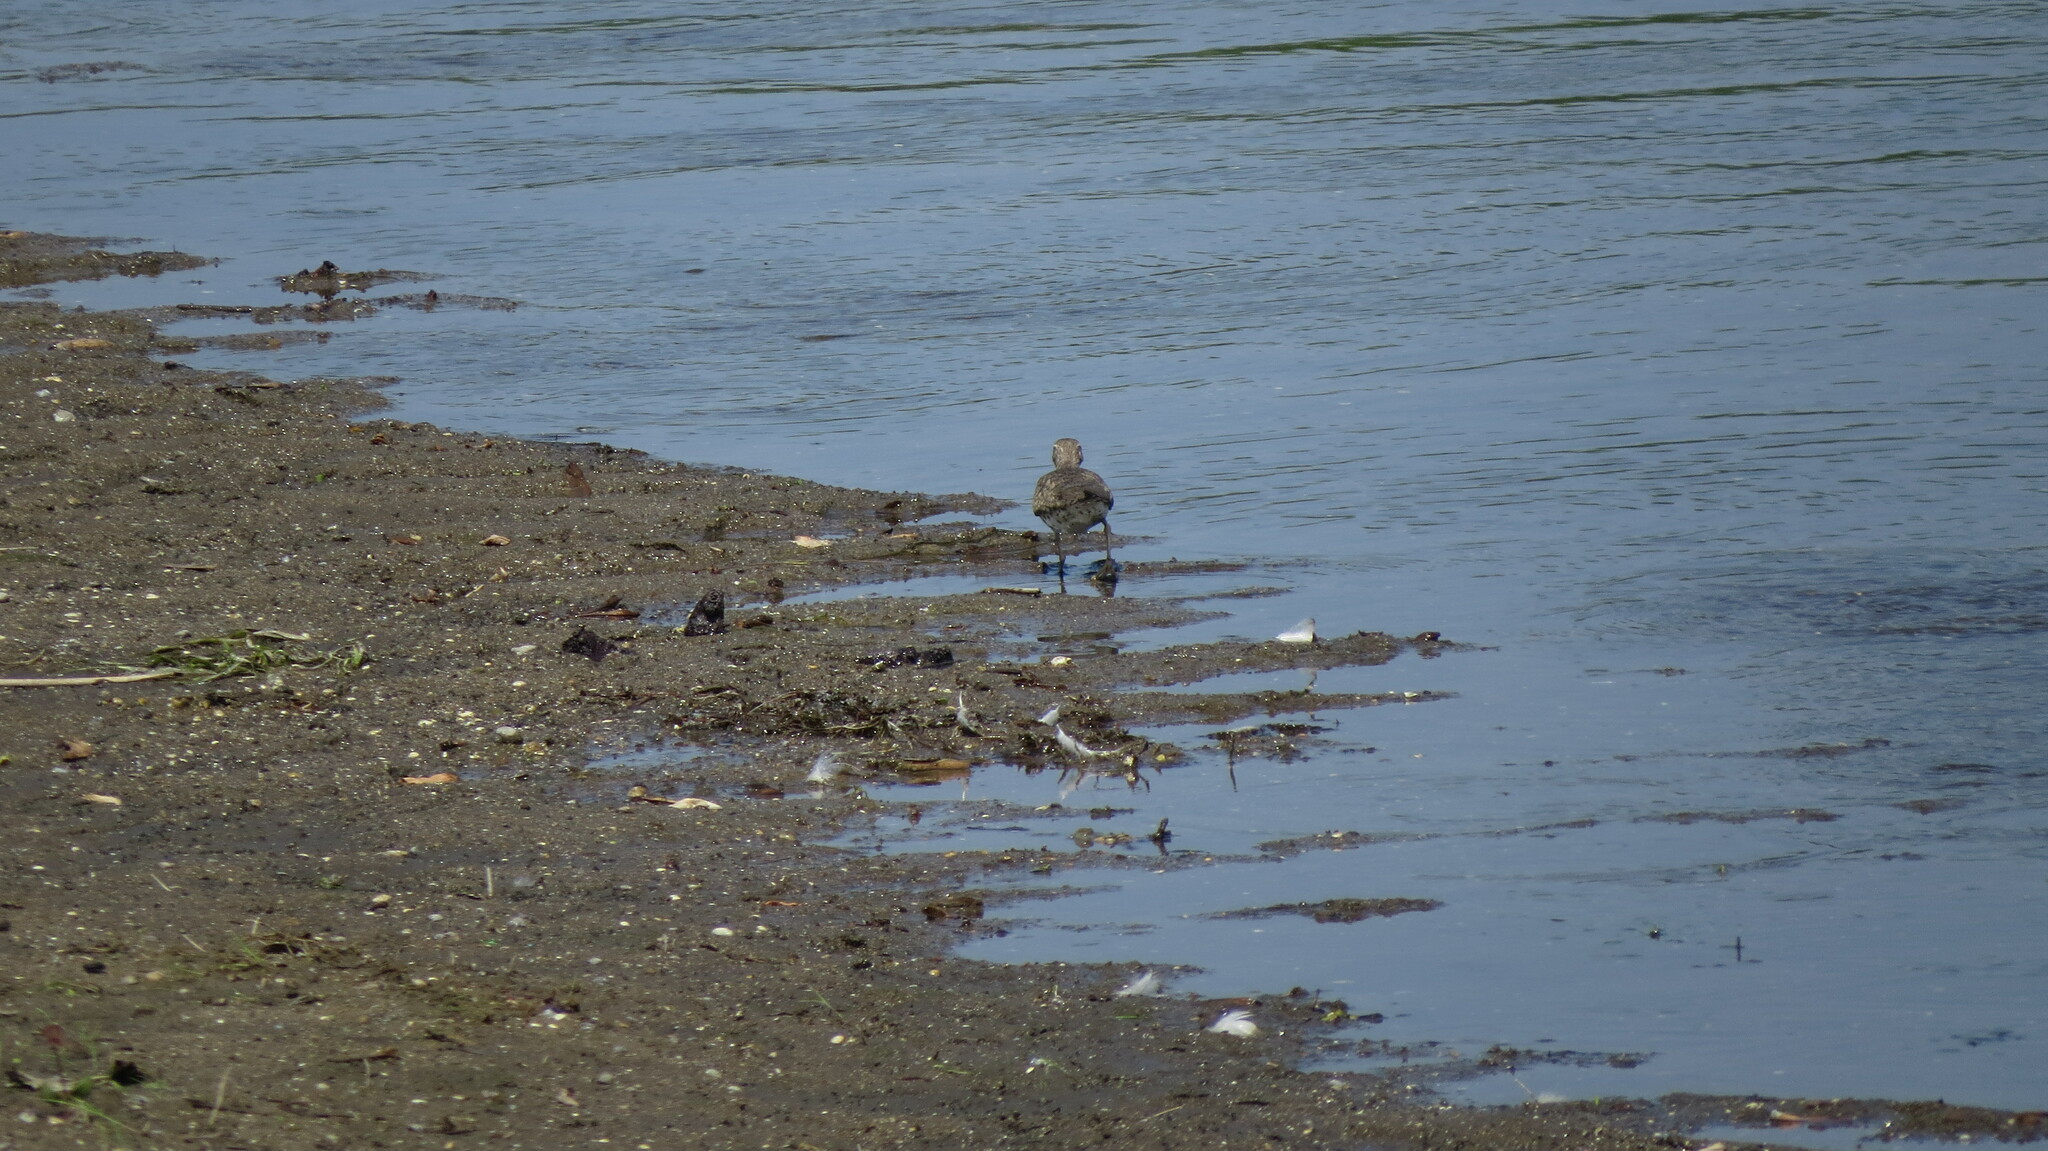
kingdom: Animalia
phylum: Chordata
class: Aves
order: Charadriiformes
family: Scolopacidae
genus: Actitis
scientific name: Actitis macularius
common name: Spotted sandpiper
